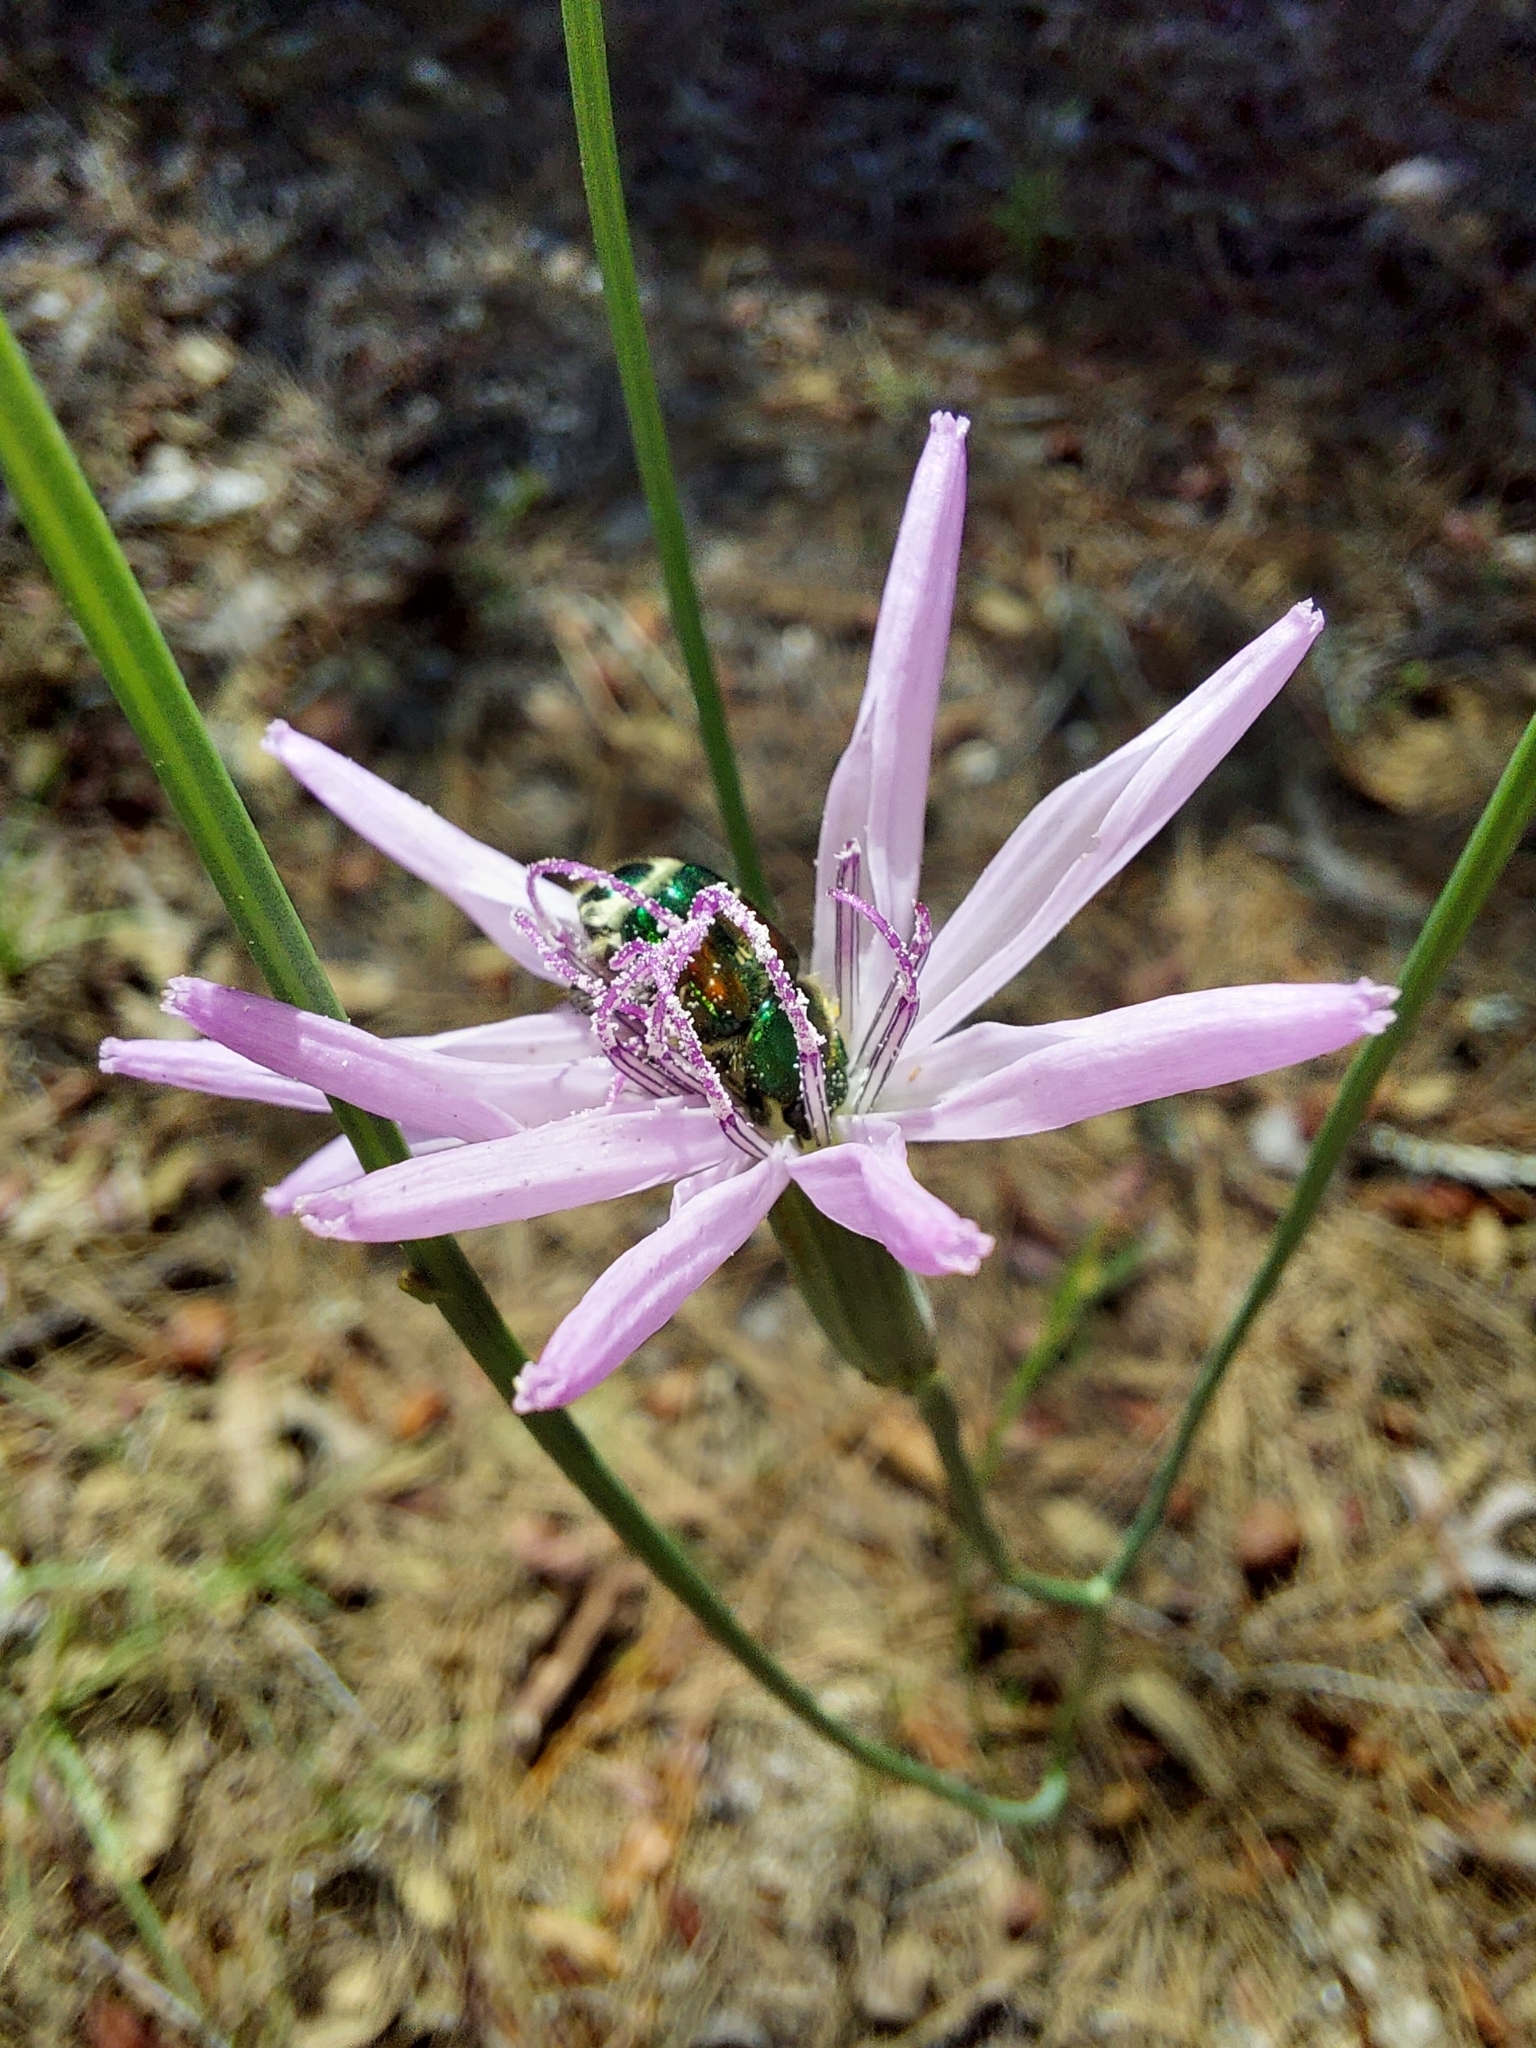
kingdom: Plantae
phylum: Tracheophyta
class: Magnoliopsida
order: Asterales
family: Asteraceae
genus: Lygodesmia
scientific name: Lygodesmia aphylla
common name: Rose-rush
